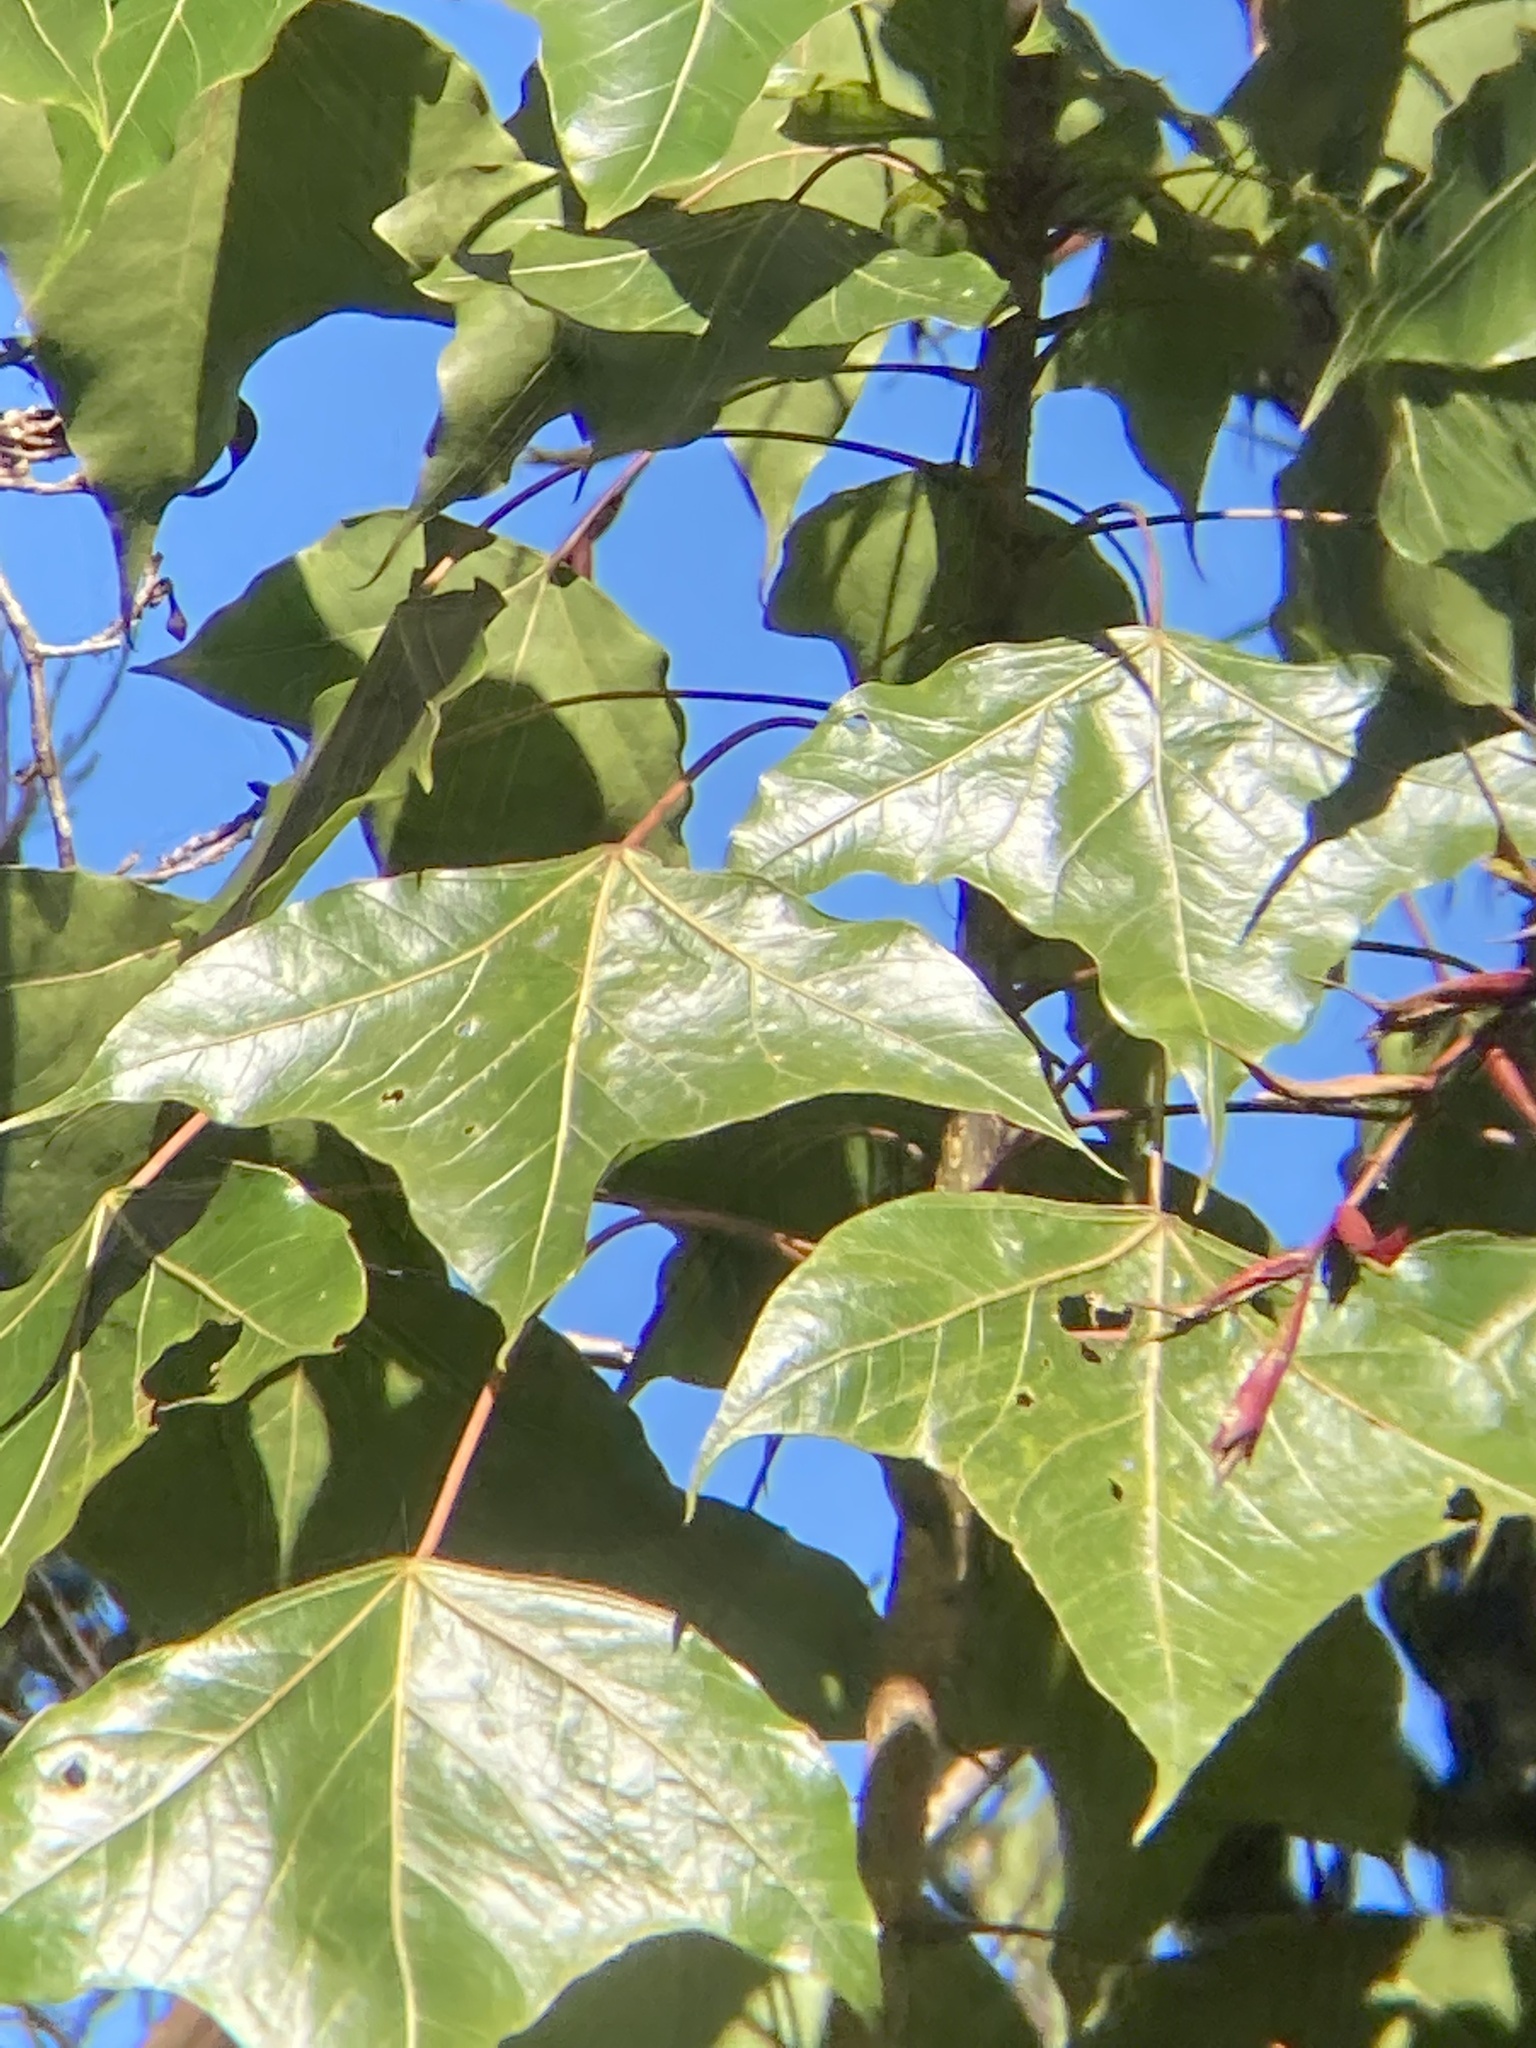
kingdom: Plantae
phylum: Tracheophyta
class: Magnoliopsida
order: Apiales
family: Araliaceae
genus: Oreopanax
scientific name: Oreopanax sanderianus
